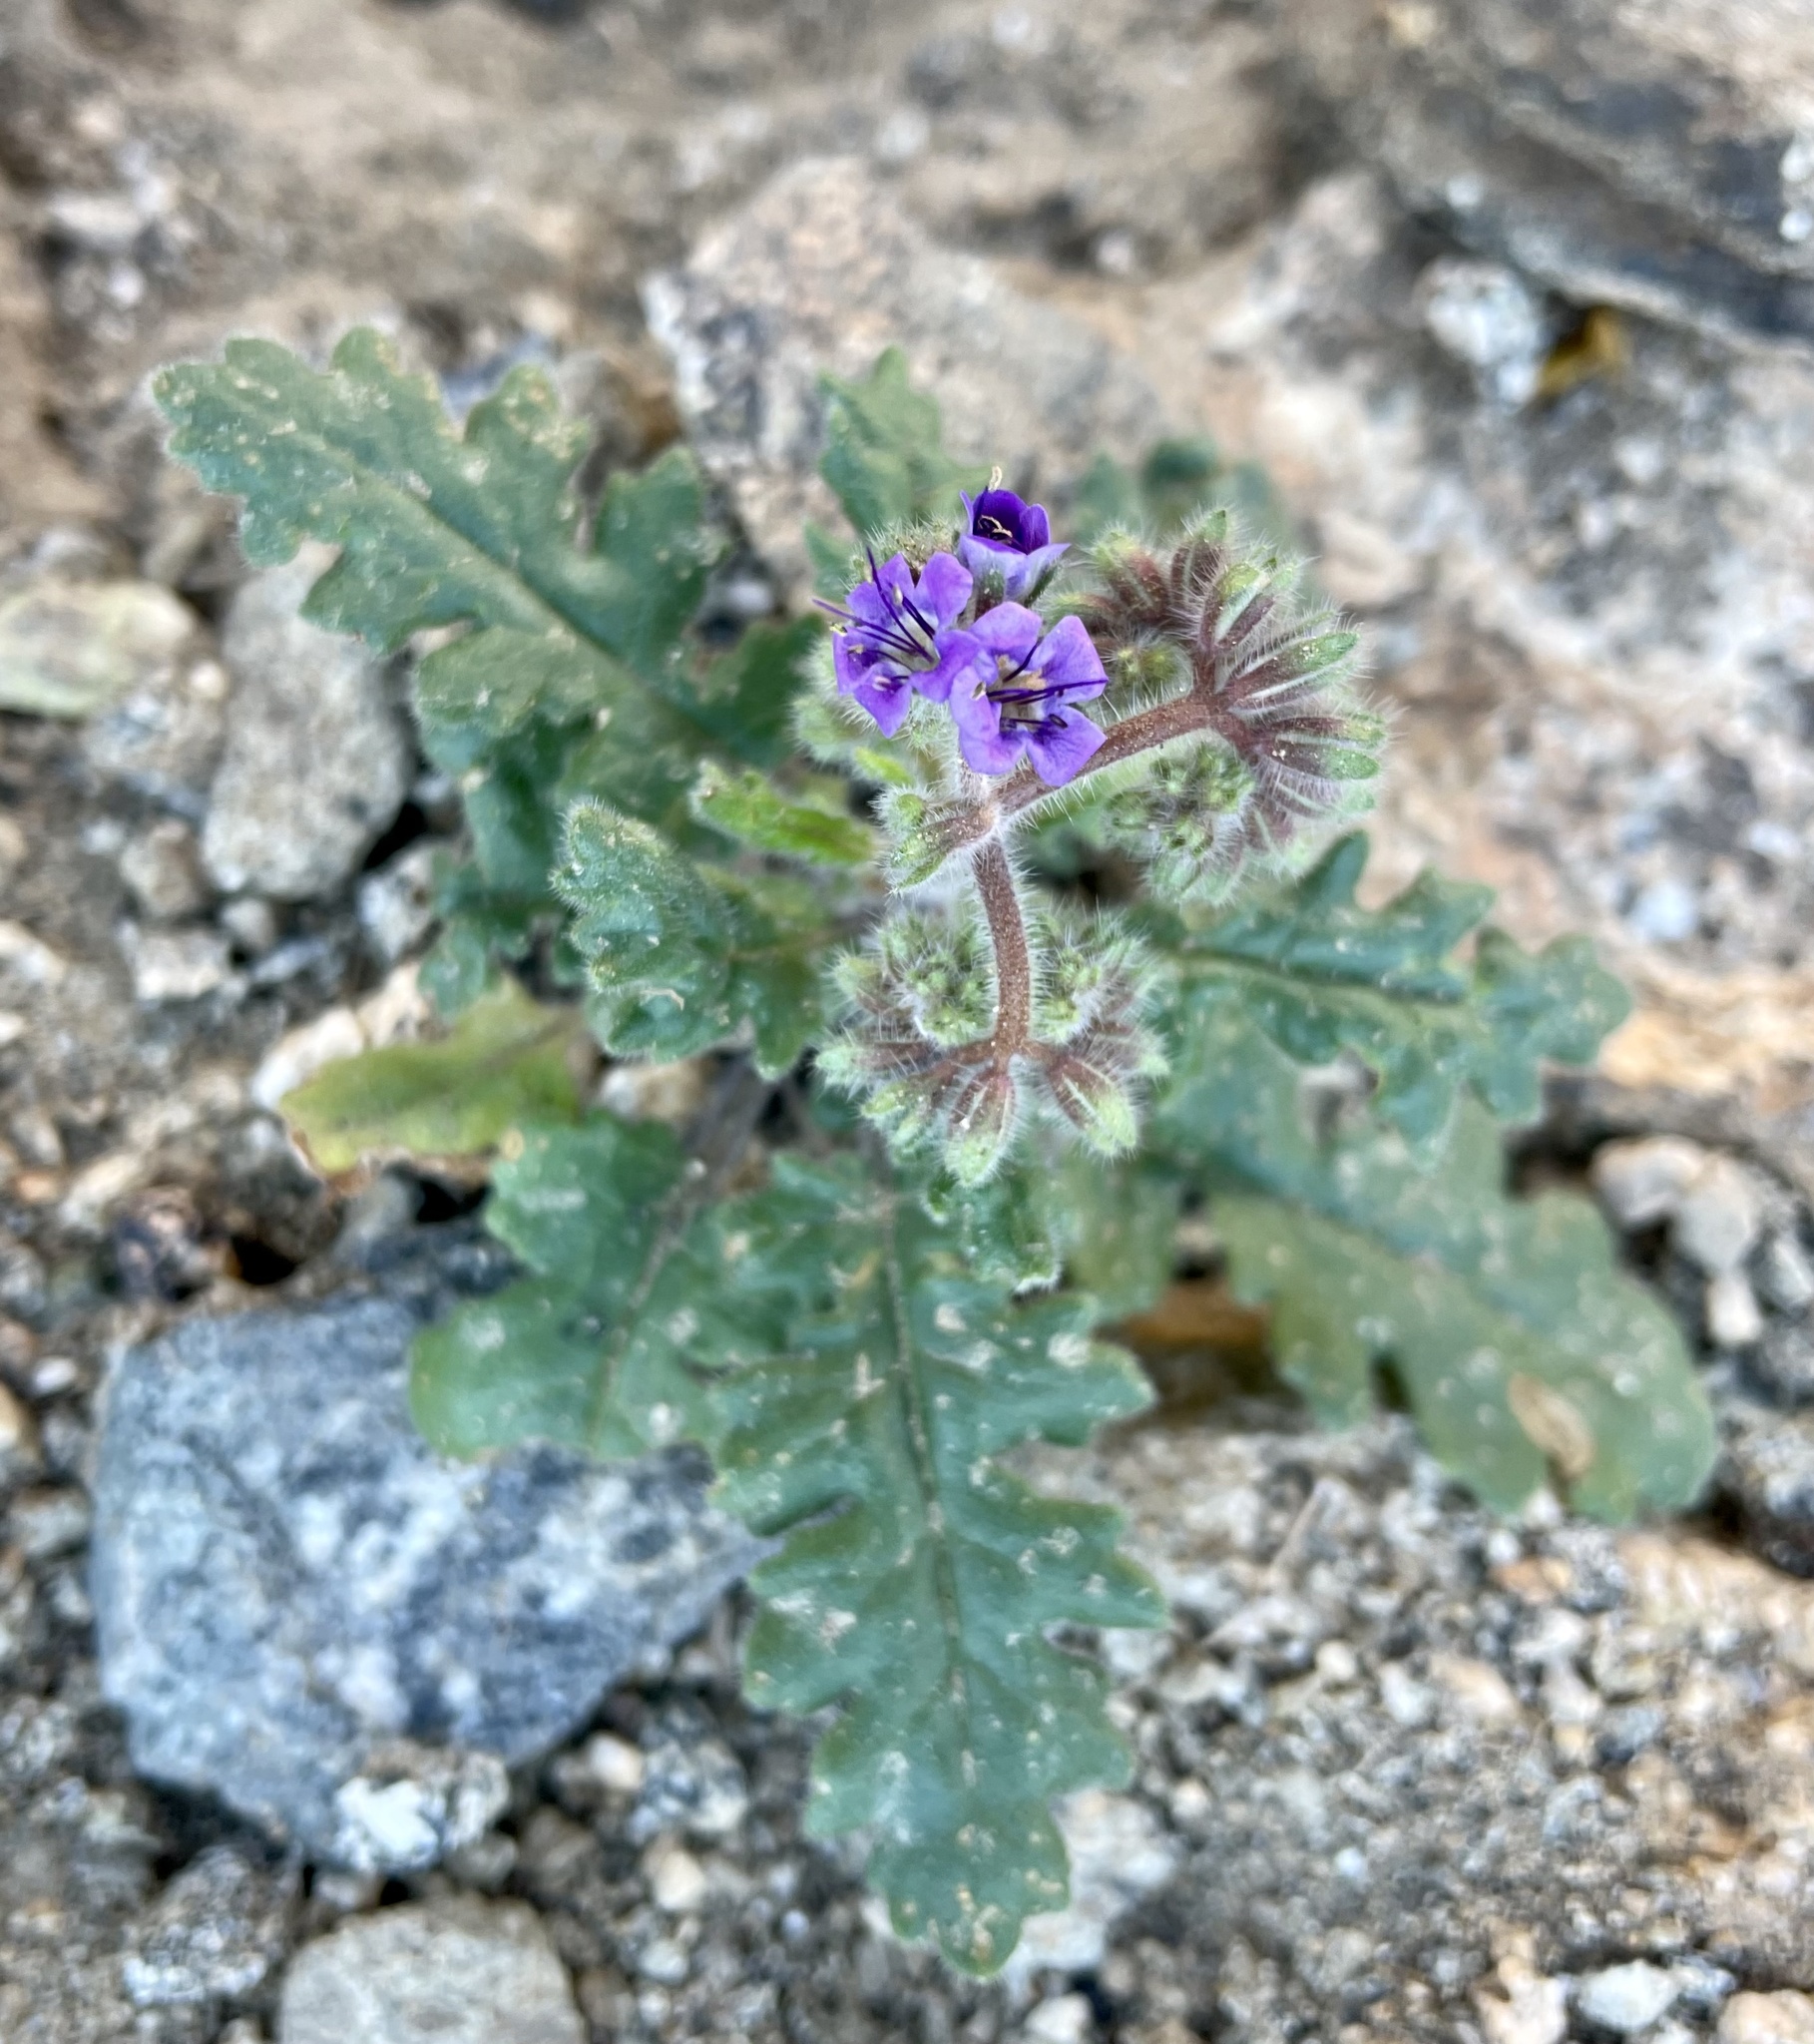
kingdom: Plantae
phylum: Tracheophyta
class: Magnoliopsida
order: Boraginales
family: Hydrophyllaceae
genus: Phacelia
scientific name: Phacelia crenulata
